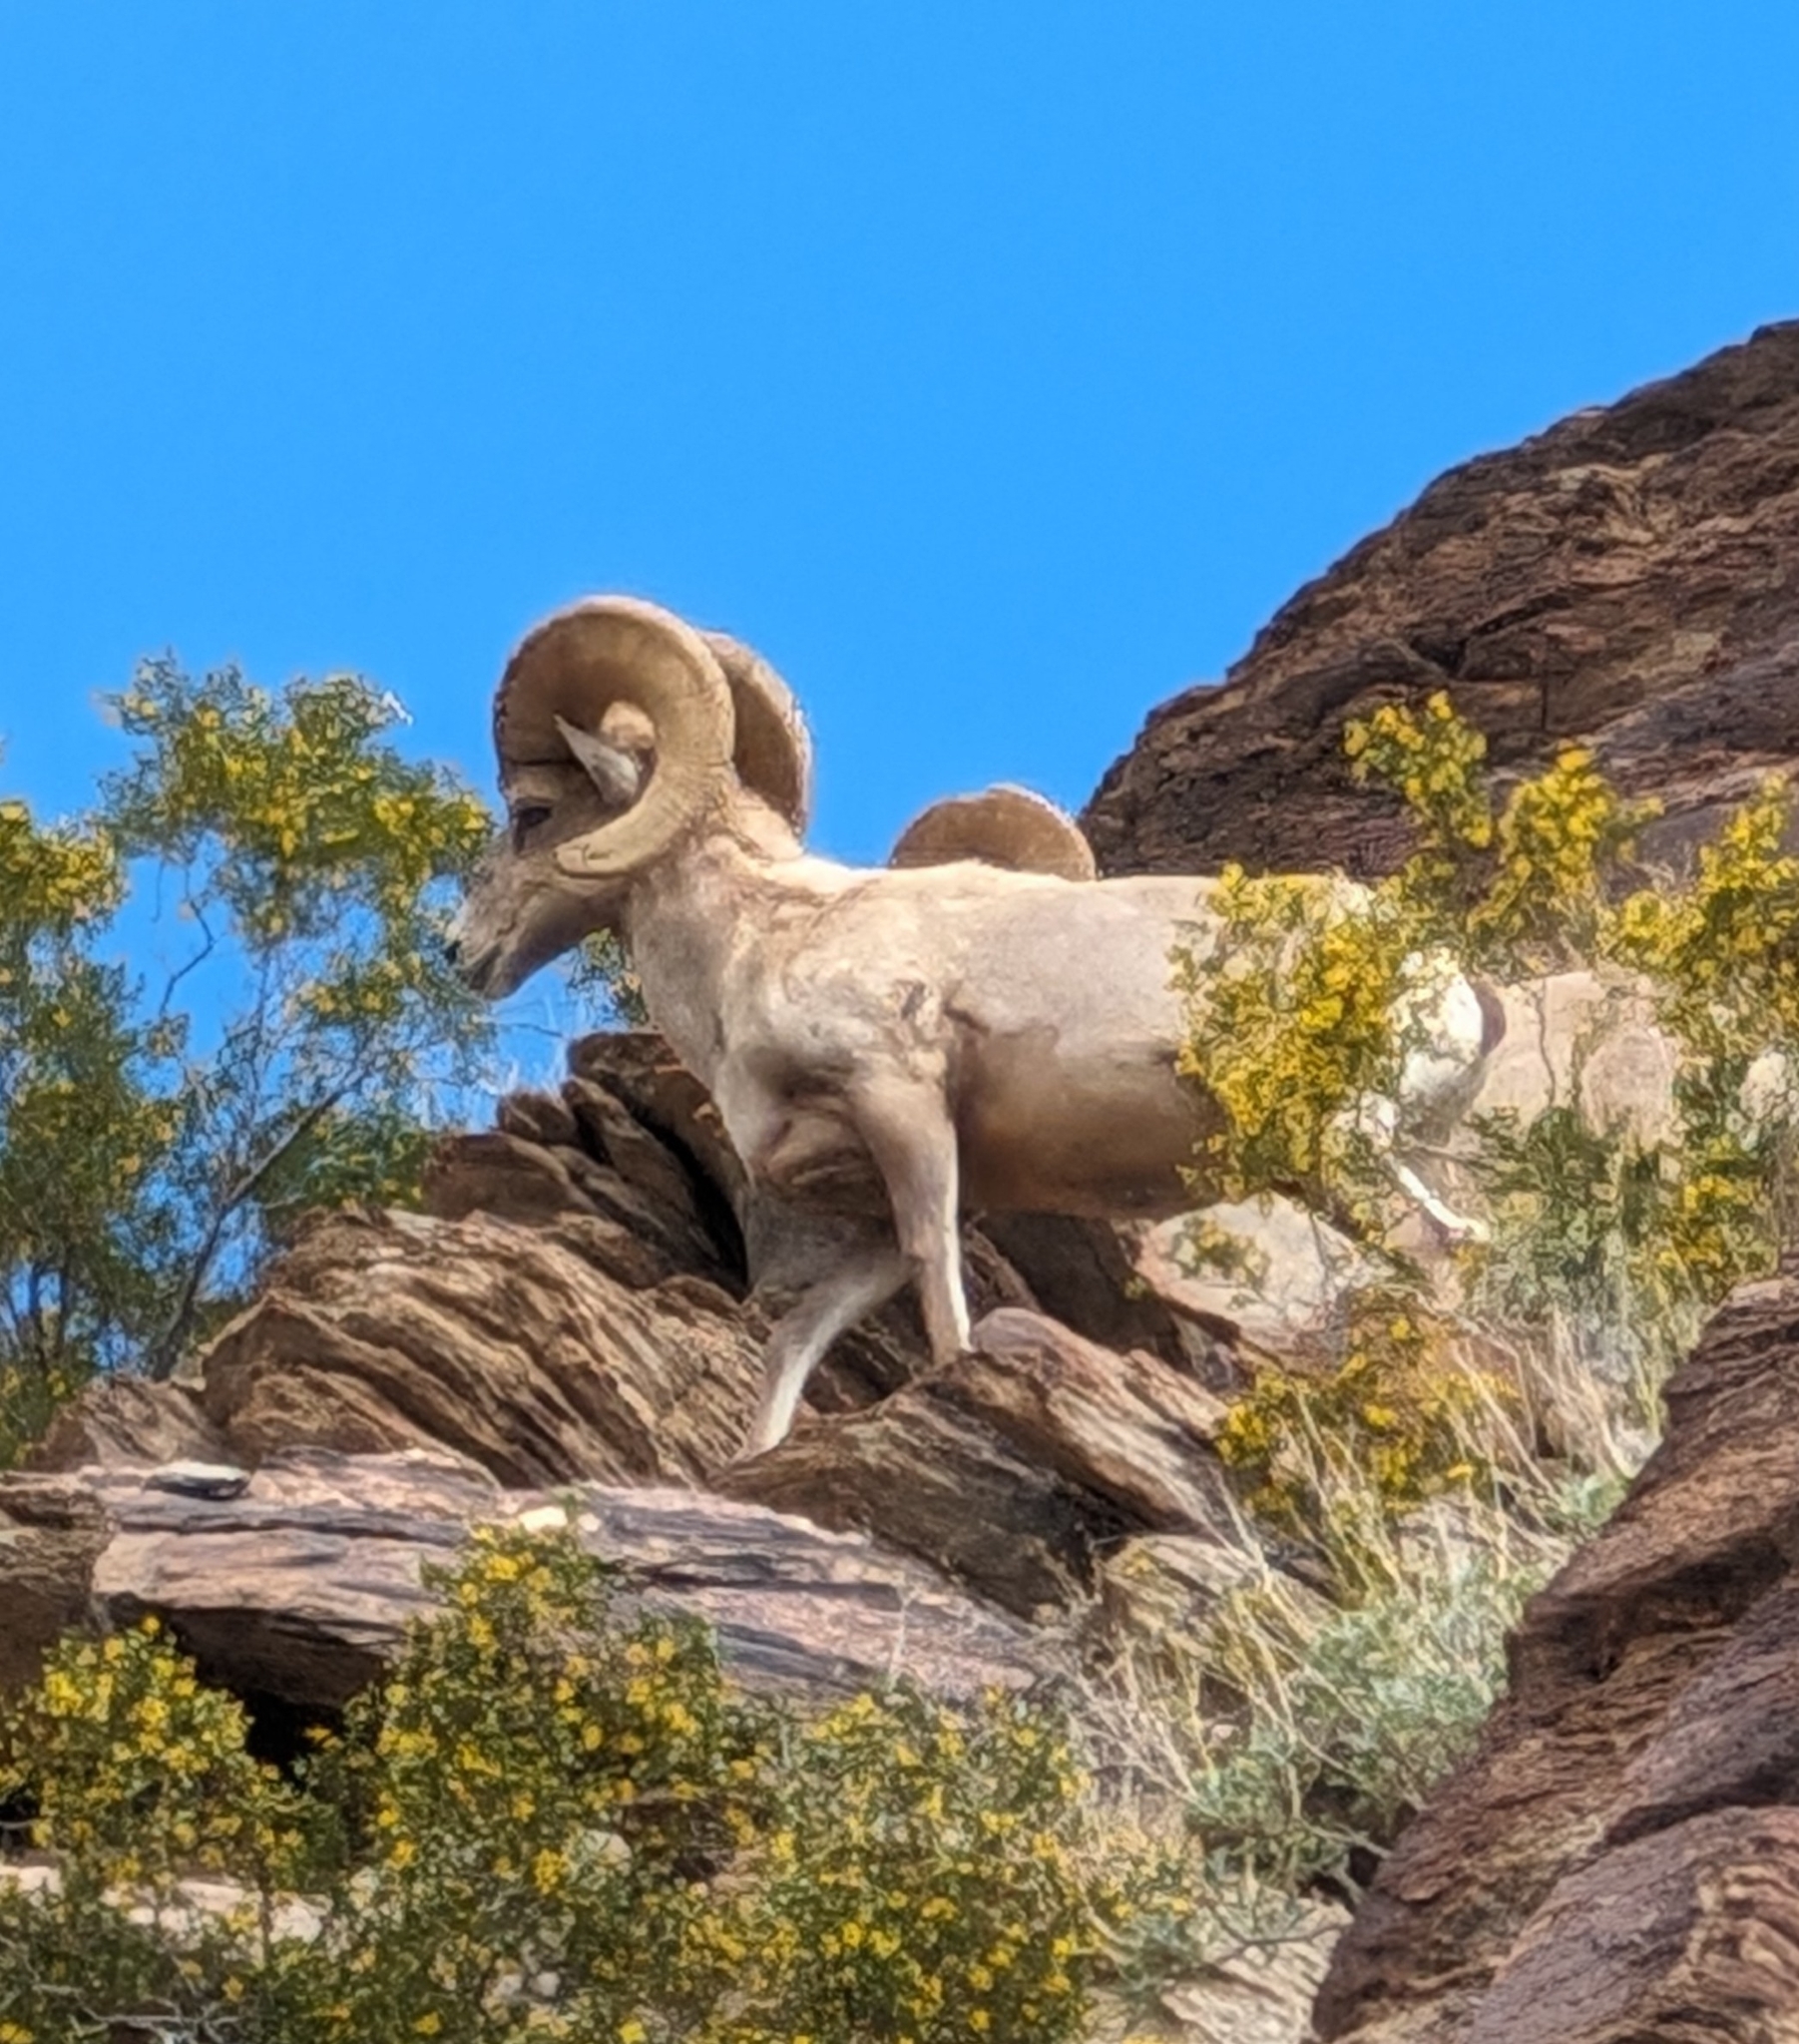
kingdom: Animalia
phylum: Chordata
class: Mammalia
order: Artiodactyla
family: Bovidae
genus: Ovis
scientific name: Ovis canadensis
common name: Bighorn sheep
